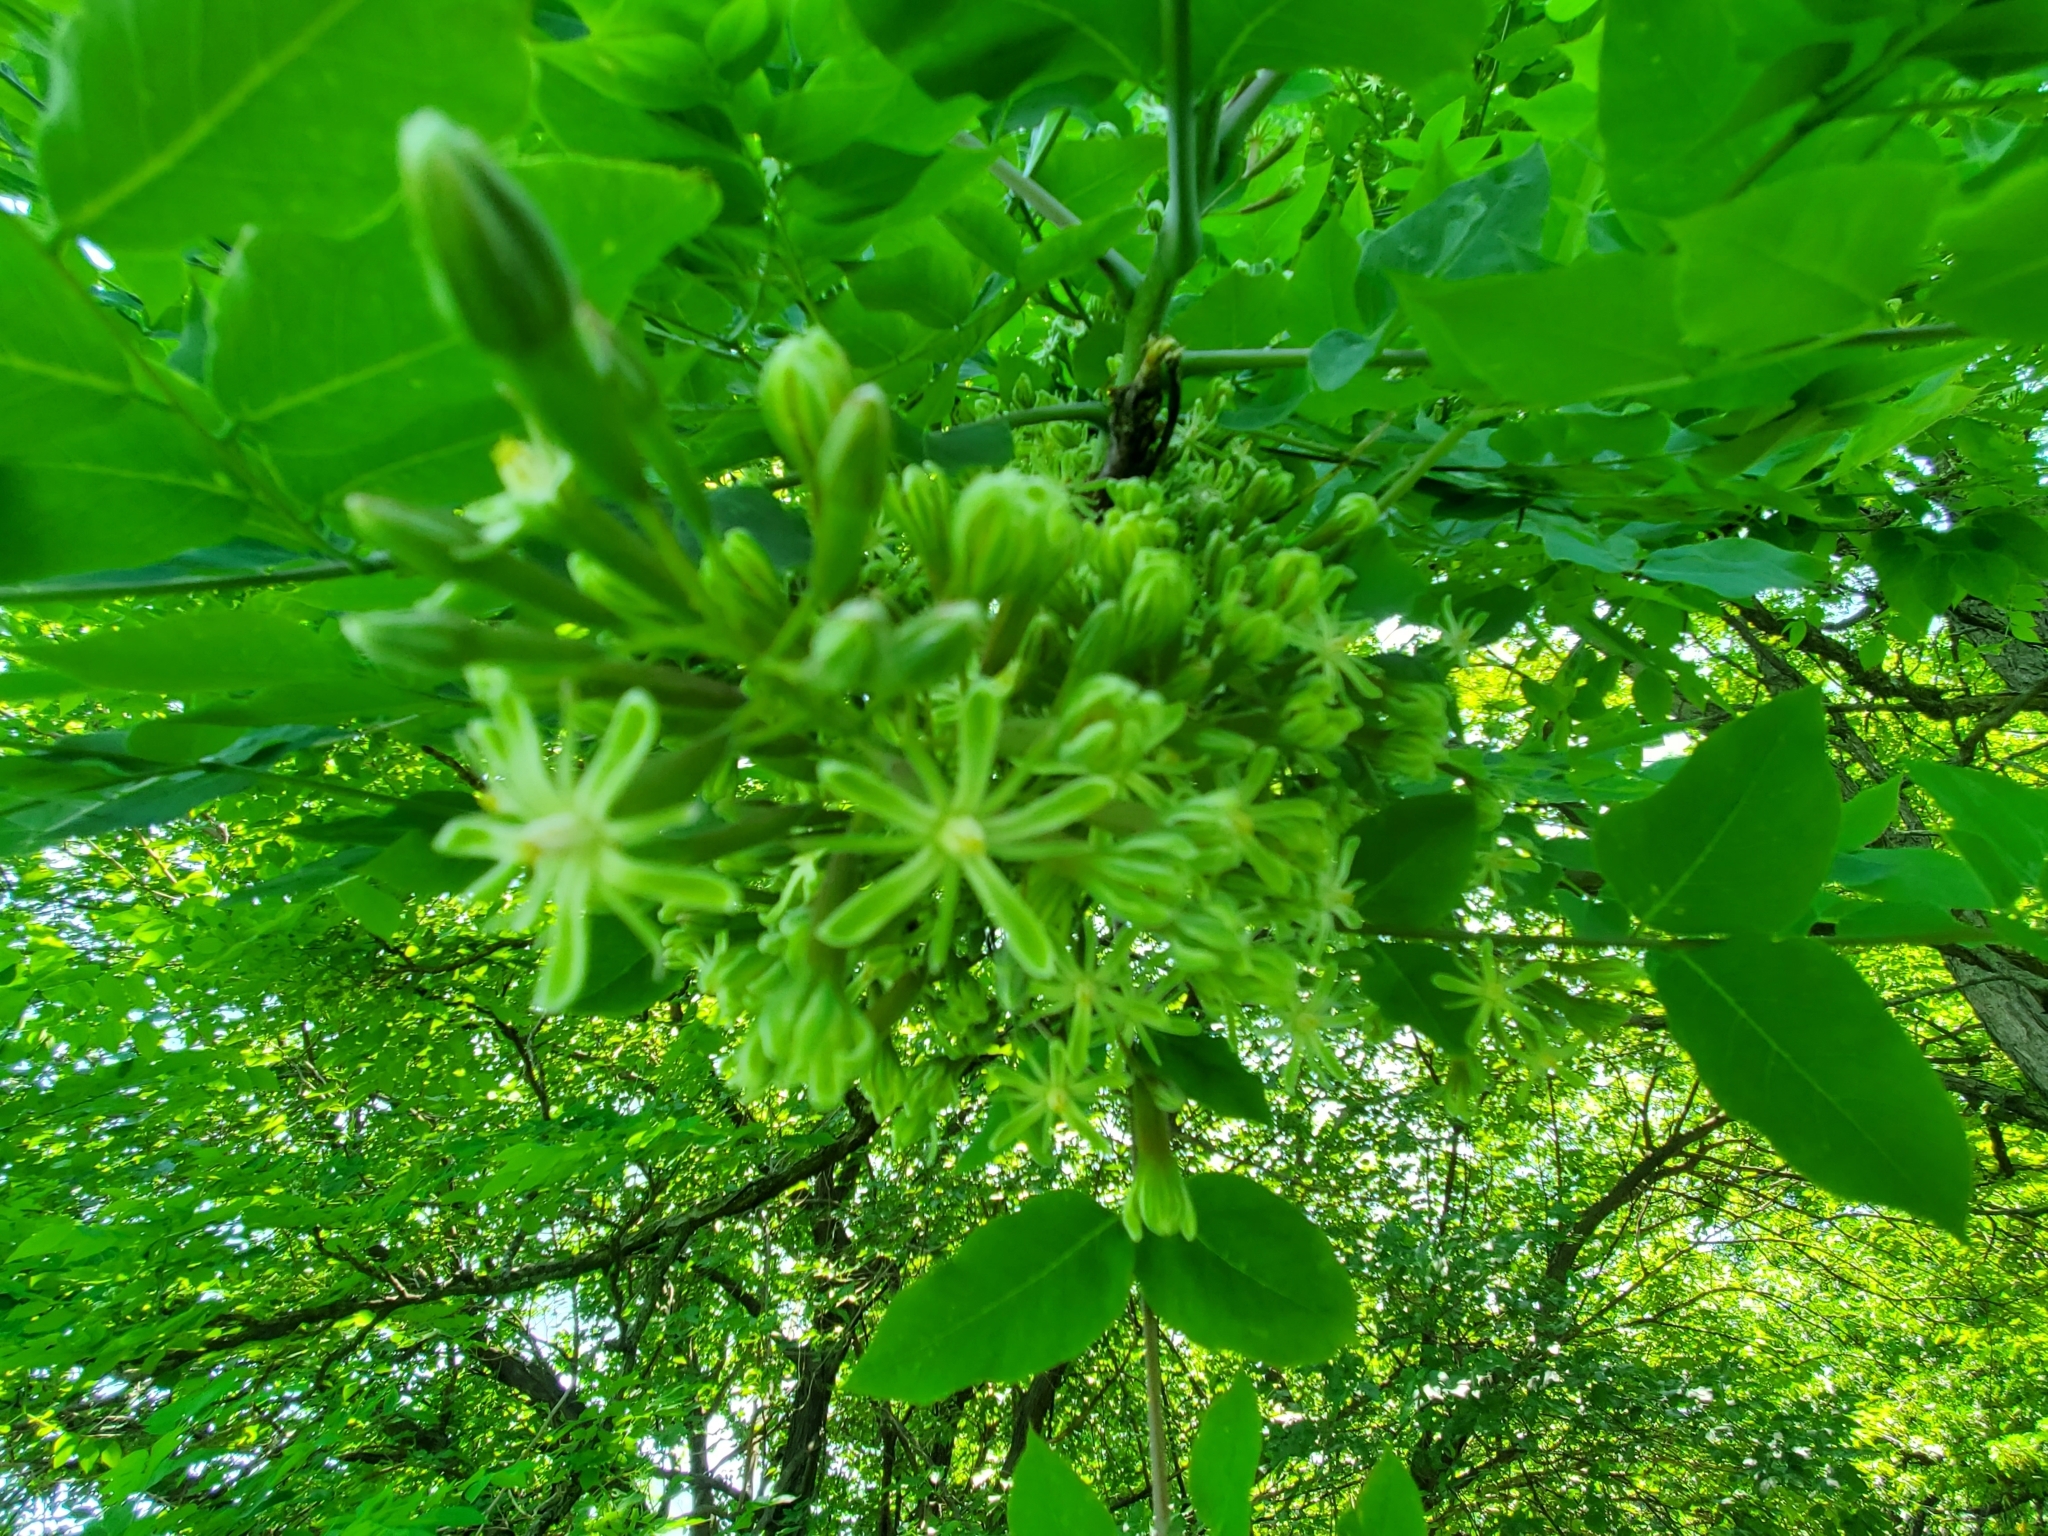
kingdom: Plantae
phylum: Tracheophyta
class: Magnoliopsida
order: Fabales
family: Fabaceae
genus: Gymnocladus
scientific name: Gymnocladus dioicus
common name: Kentucky coffee-tree
